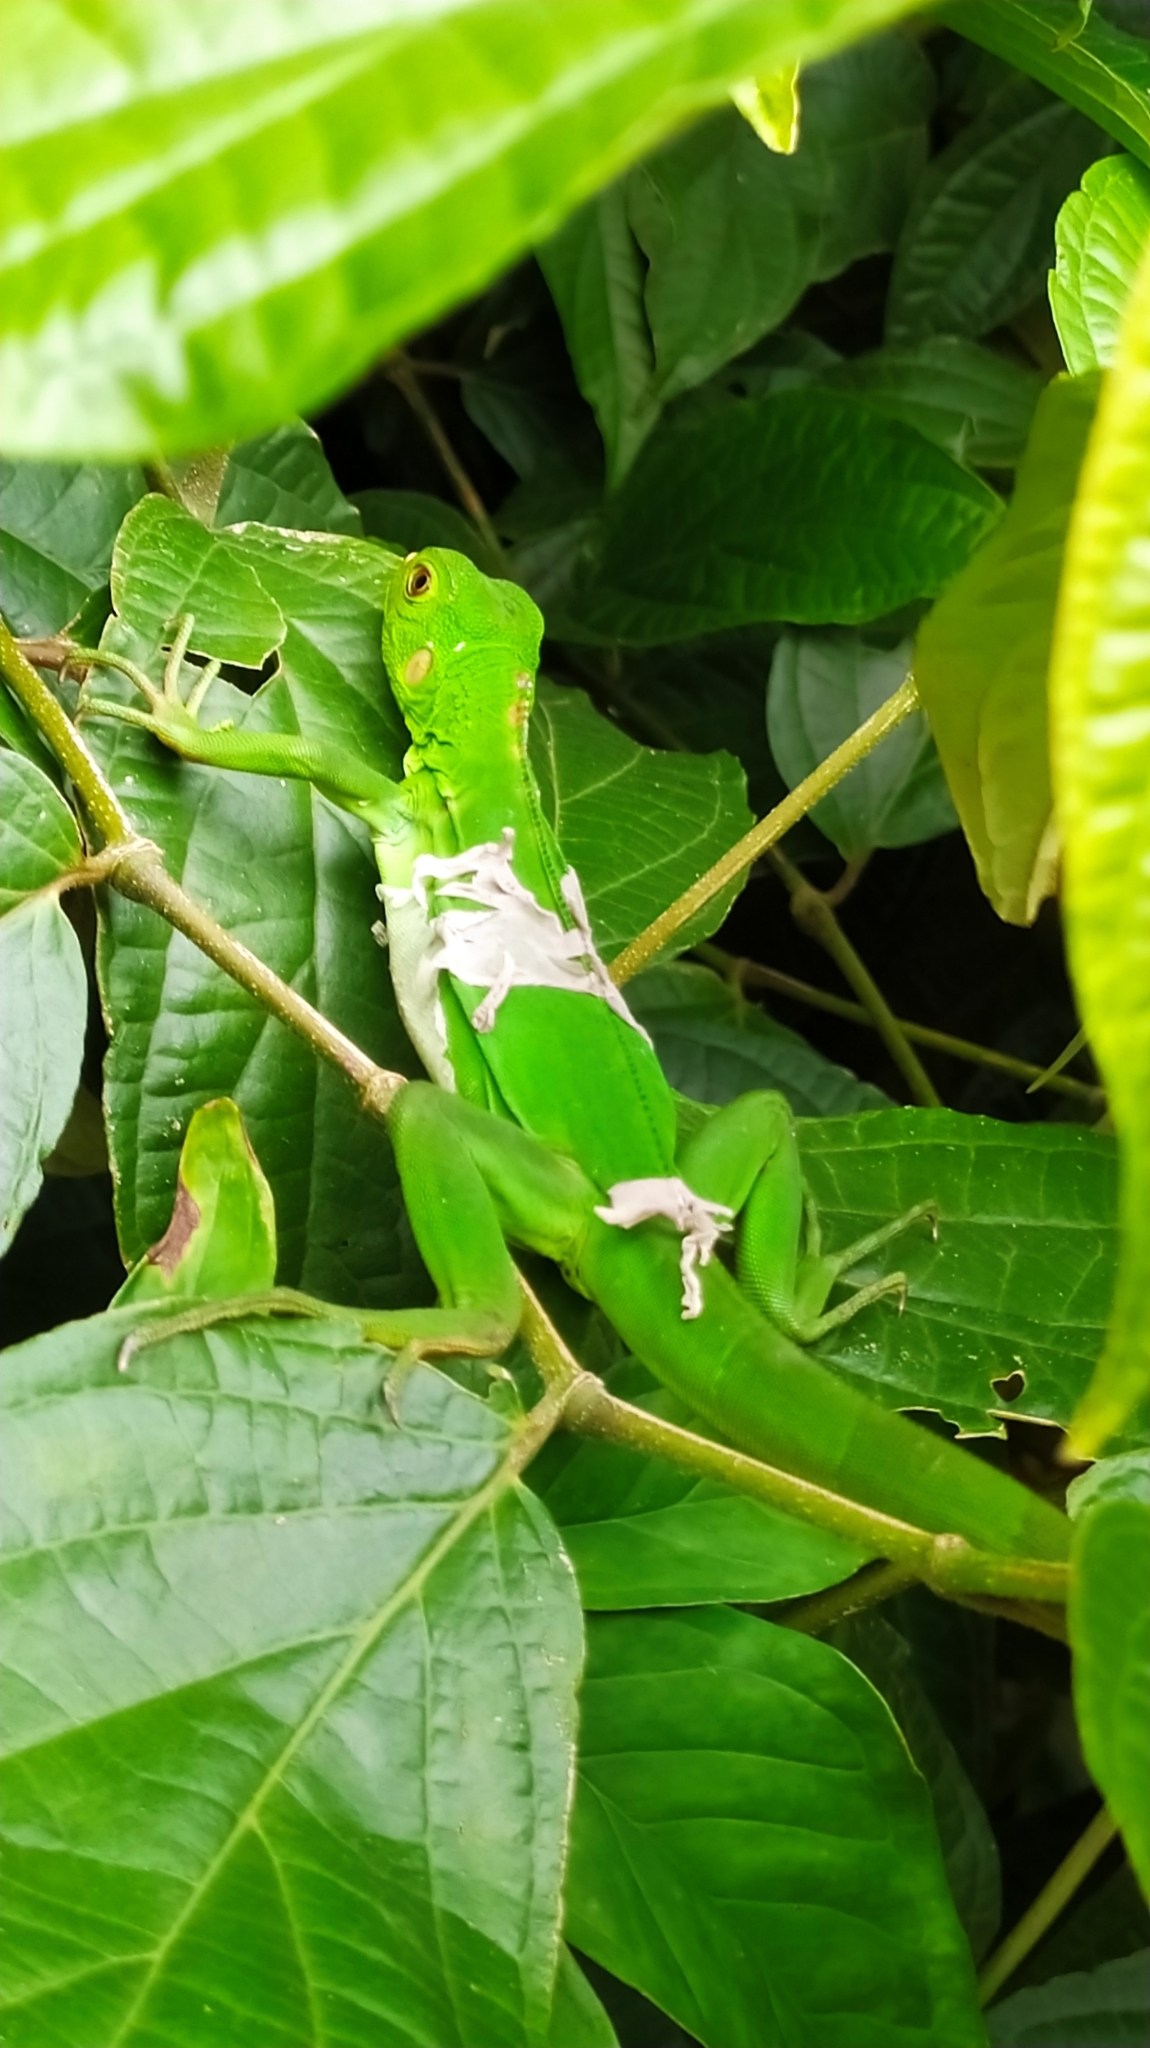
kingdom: Animalia
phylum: Chordata
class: Squamata
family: Iguanidae
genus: Iguana
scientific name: Iguana iguana
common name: Green iguana
